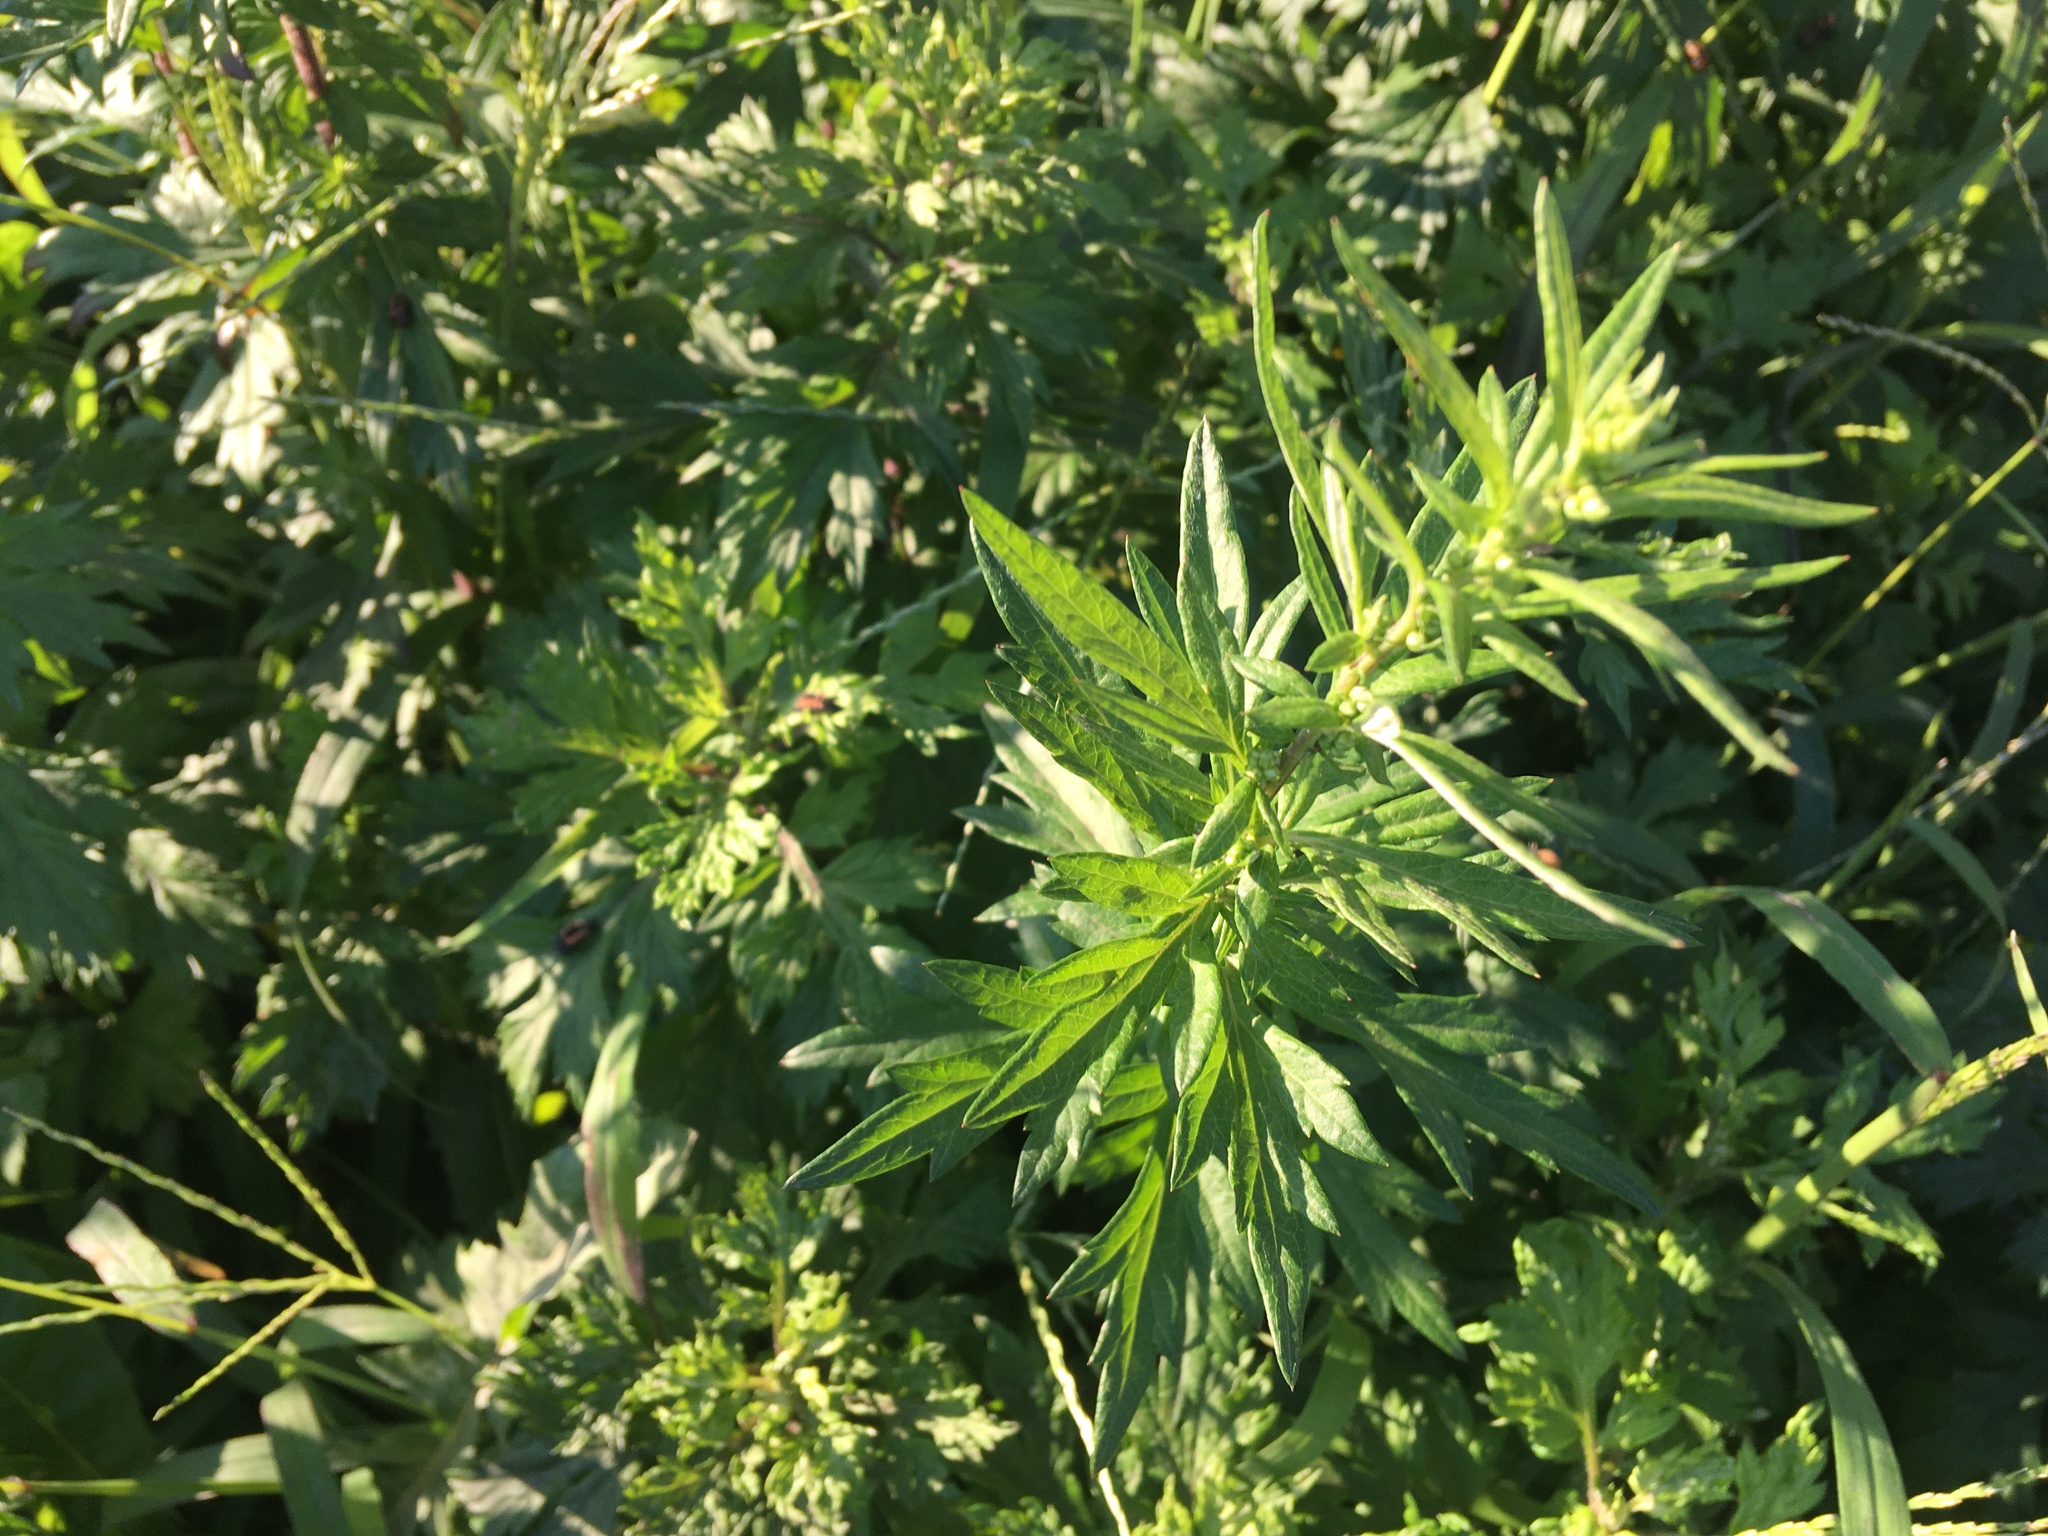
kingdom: Plantae
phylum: Tracheophyta
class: Magnoliopsida
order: Asterales
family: Asteraceae
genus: Artemisia
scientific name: Artemisia vulgaris
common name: Mugwort
